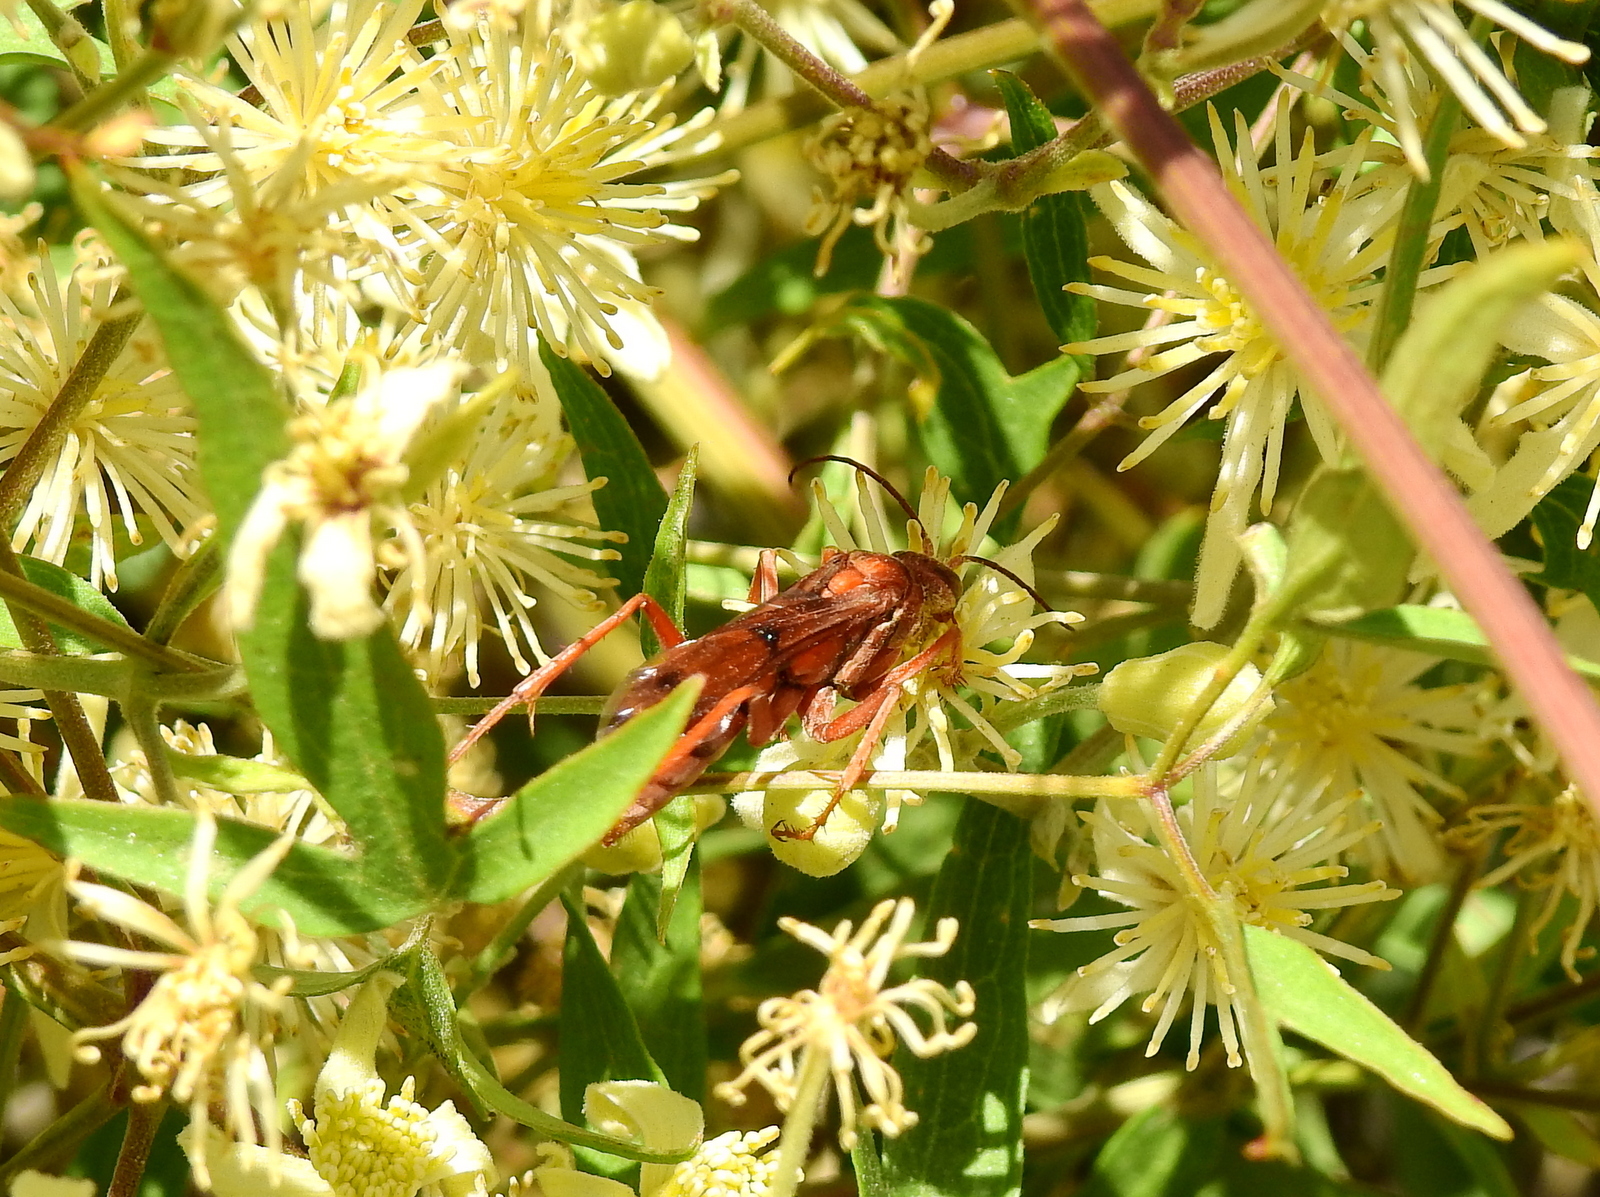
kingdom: Animalia
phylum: Arthropoda
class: Insecta
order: Hymenoptera
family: Pompilidae
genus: Tachypompilus
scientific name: Tachypompilus mendozae
